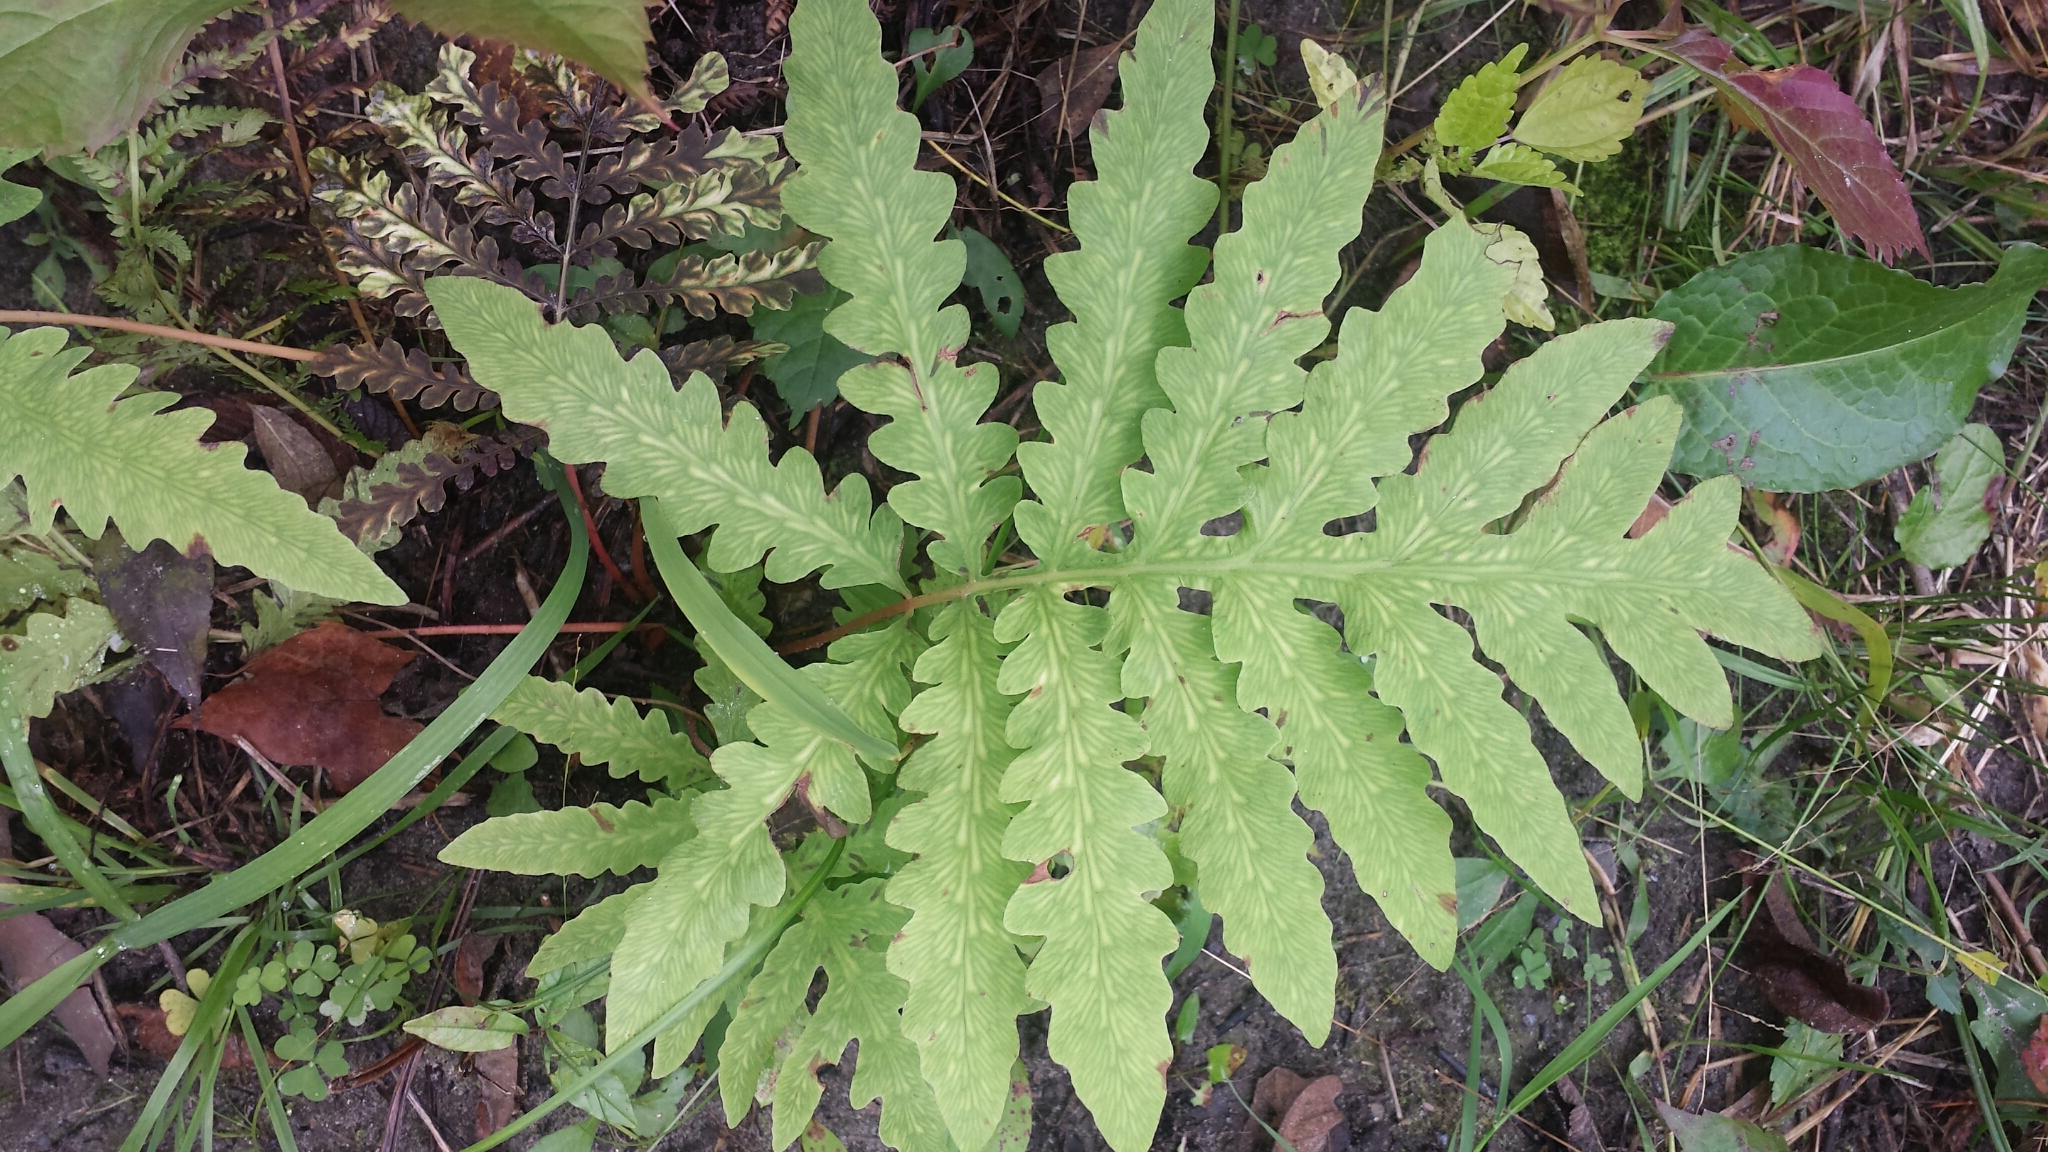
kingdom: Plantae
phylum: Tracheophyta
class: Polypodiopsida
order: Polypodiales
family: Onocleaceae
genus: Onoclea
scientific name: Onoclea sensibilis
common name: Sensitive fern
